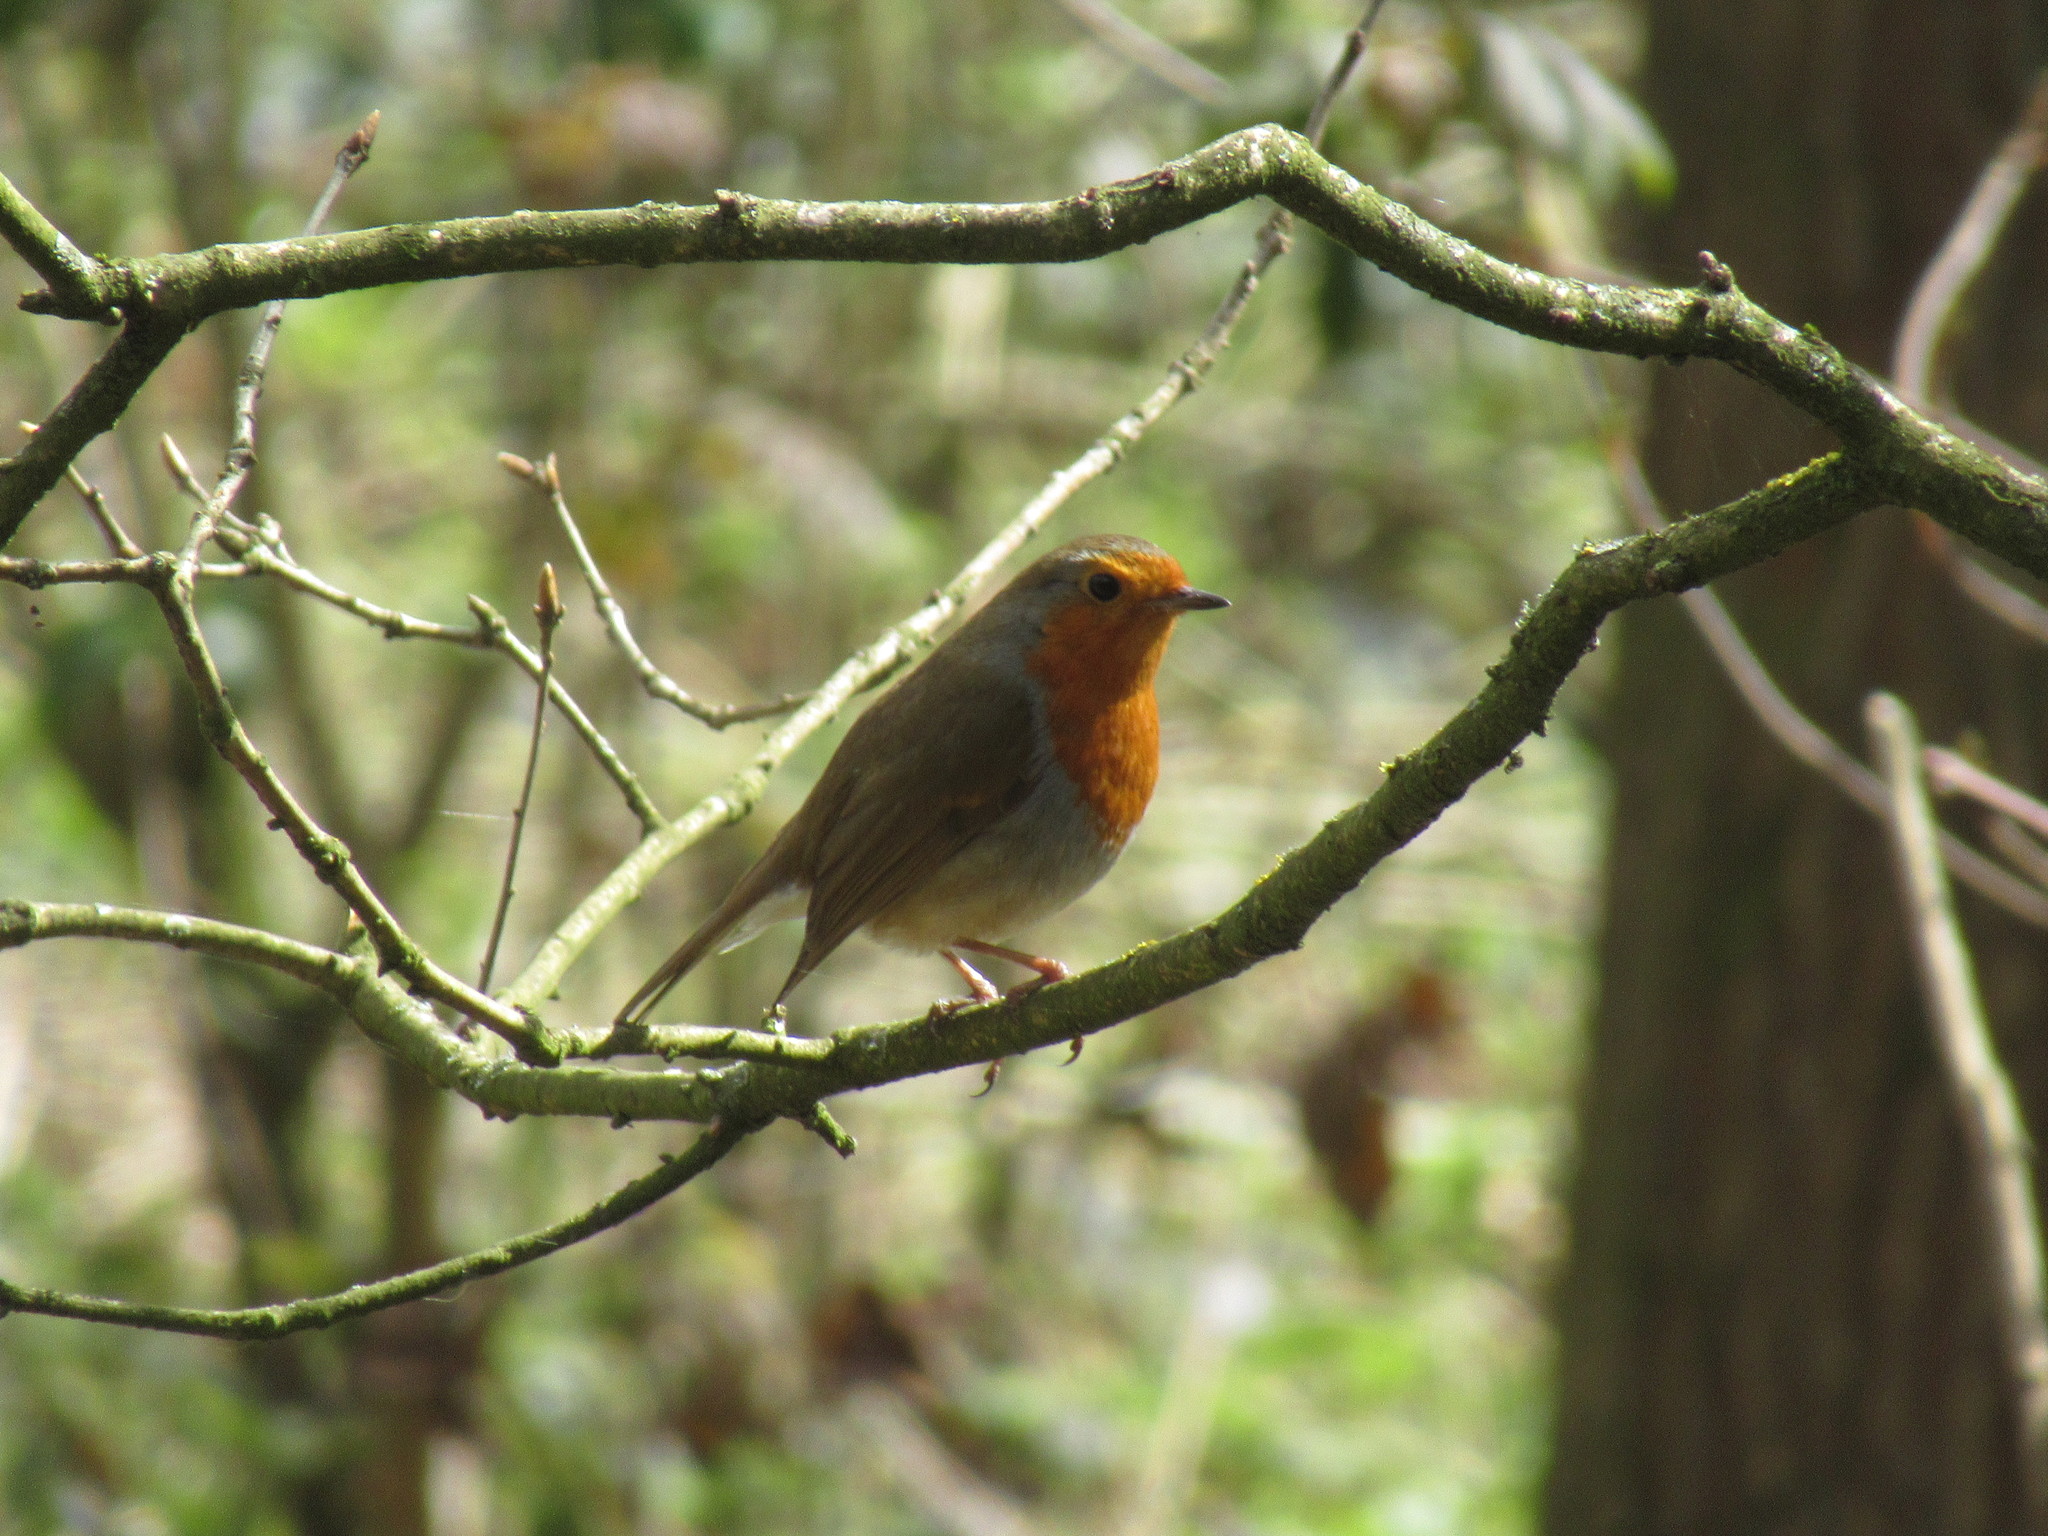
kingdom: Animalia
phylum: Chordata
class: Aves
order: Passeriformes
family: Muscicapidae
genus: Erithacus
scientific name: Erithacus rubecula
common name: European robin
